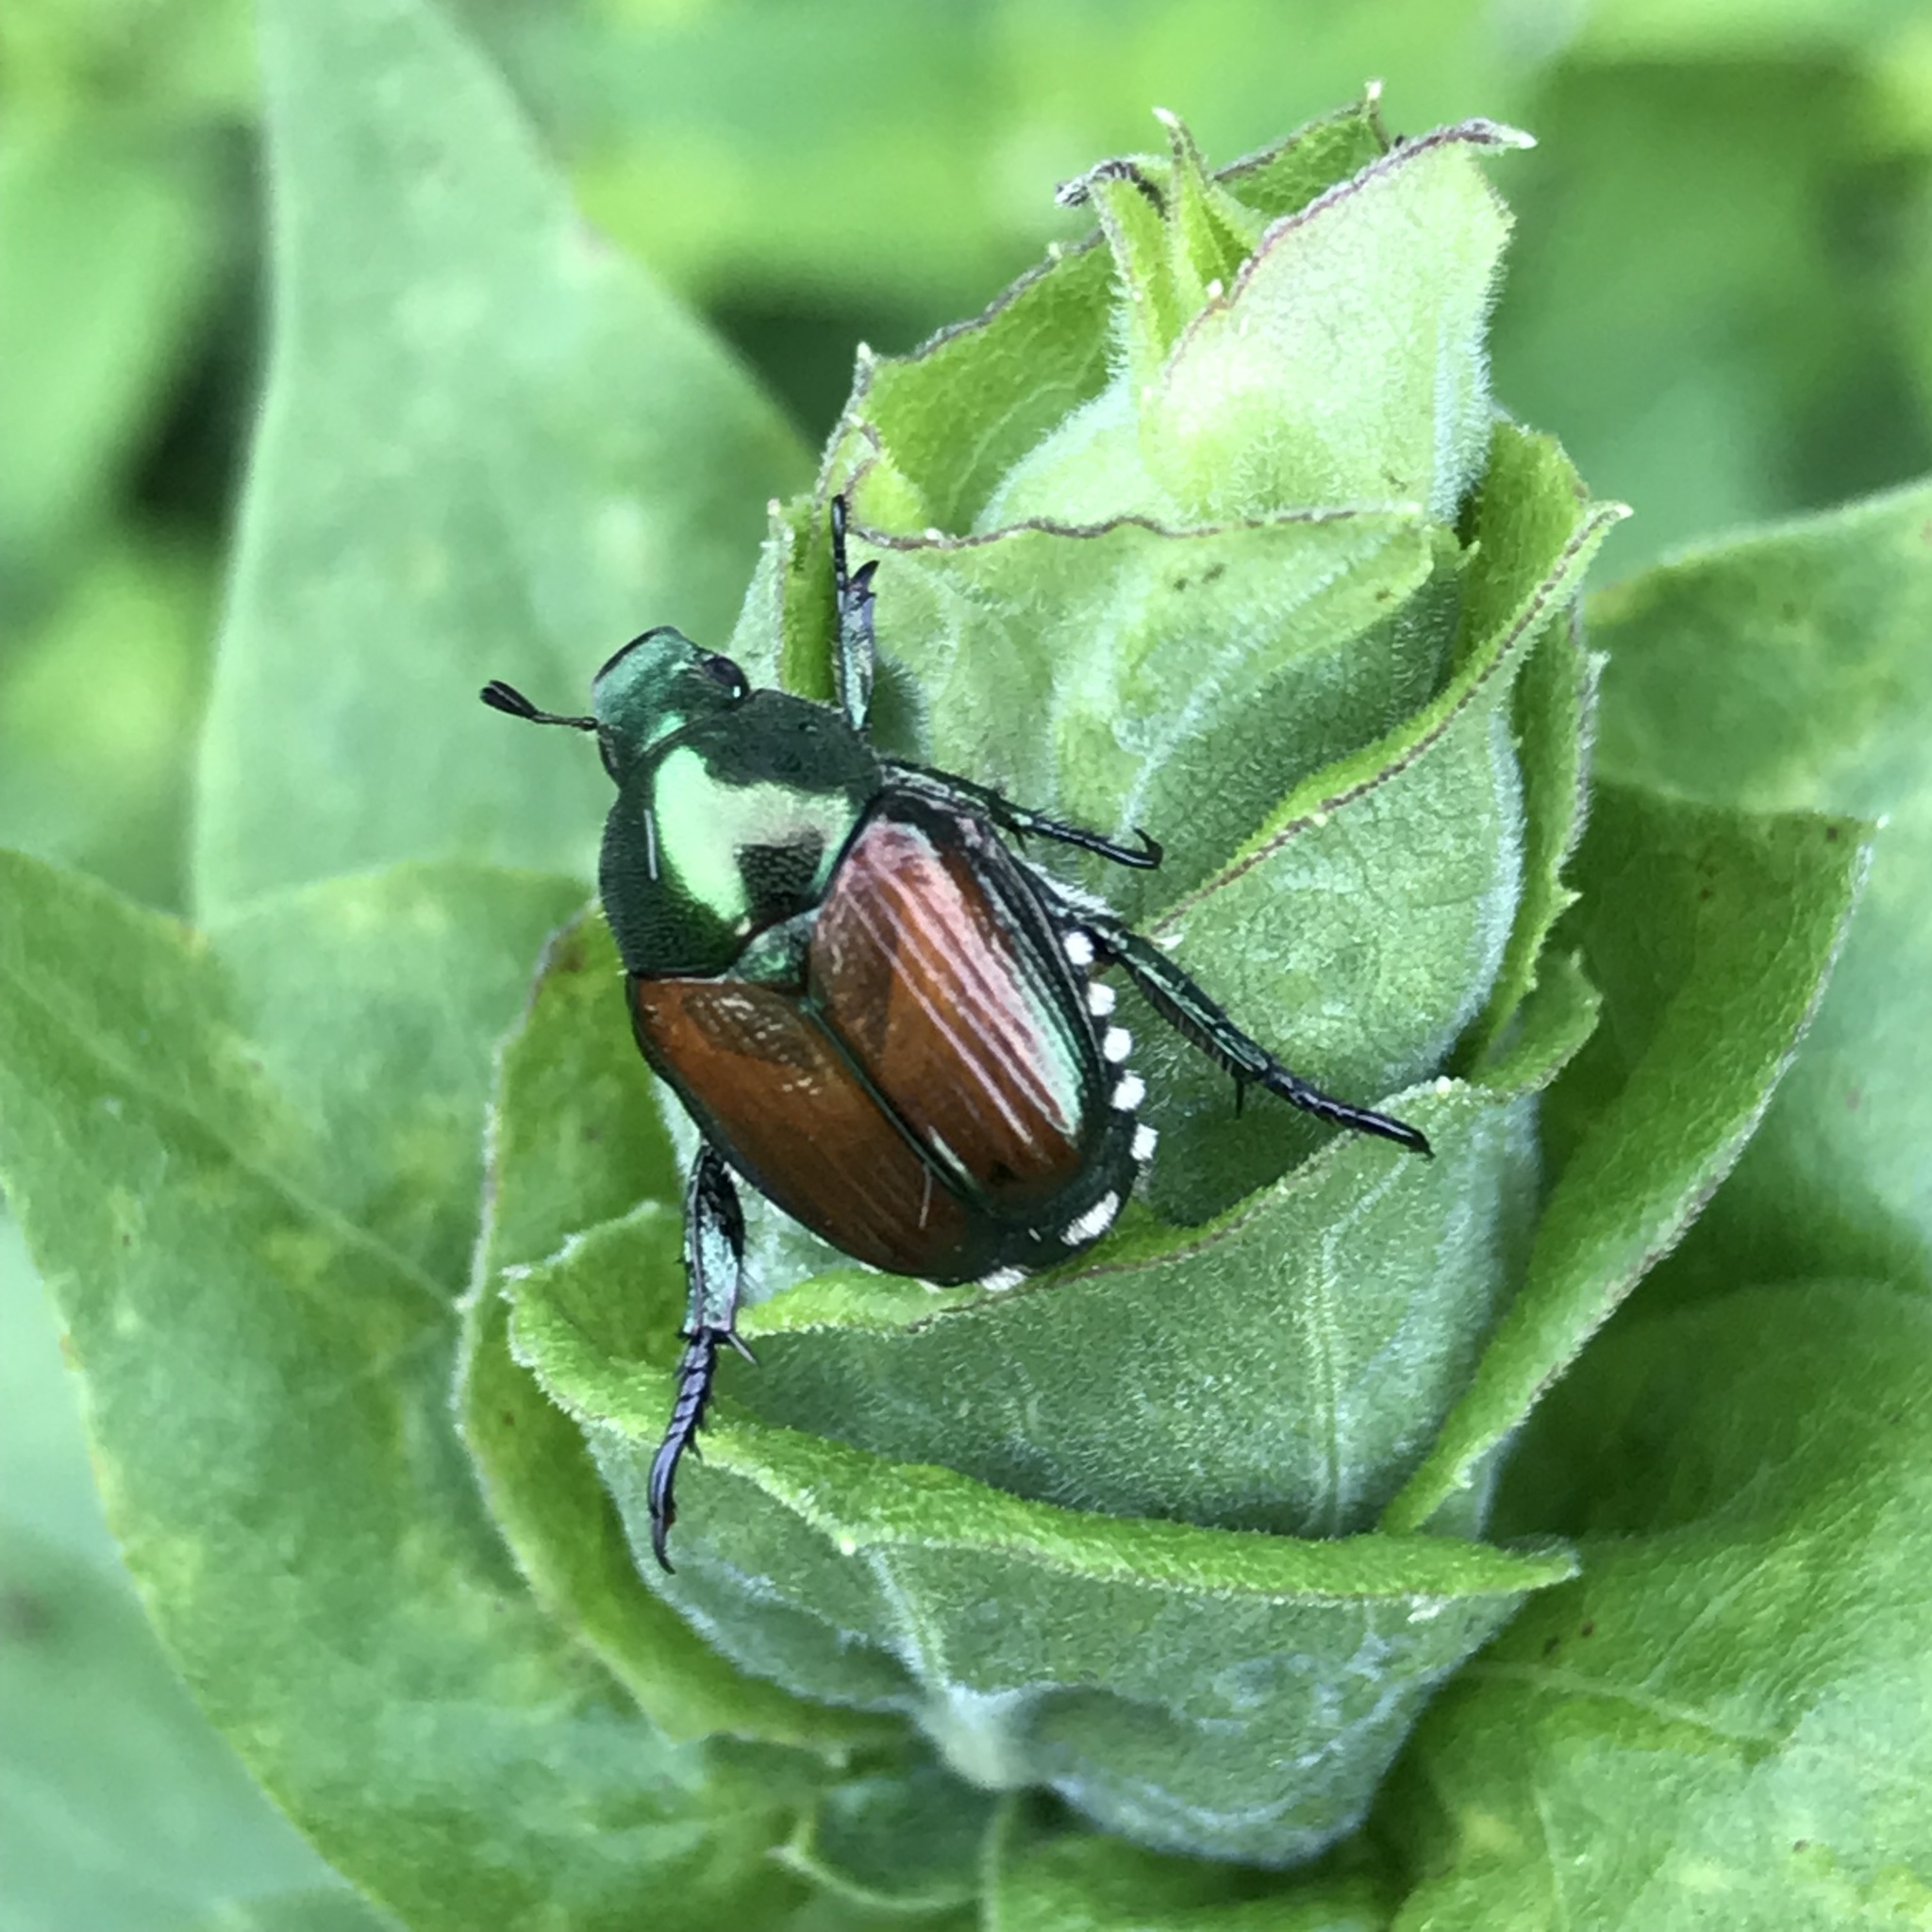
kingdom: Animalia
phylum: Arthropoda
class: Insecta
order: Coleoptera
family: Scarabaeidae
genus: Popillia
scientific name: Popillia japonica
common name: Japanese beetle
